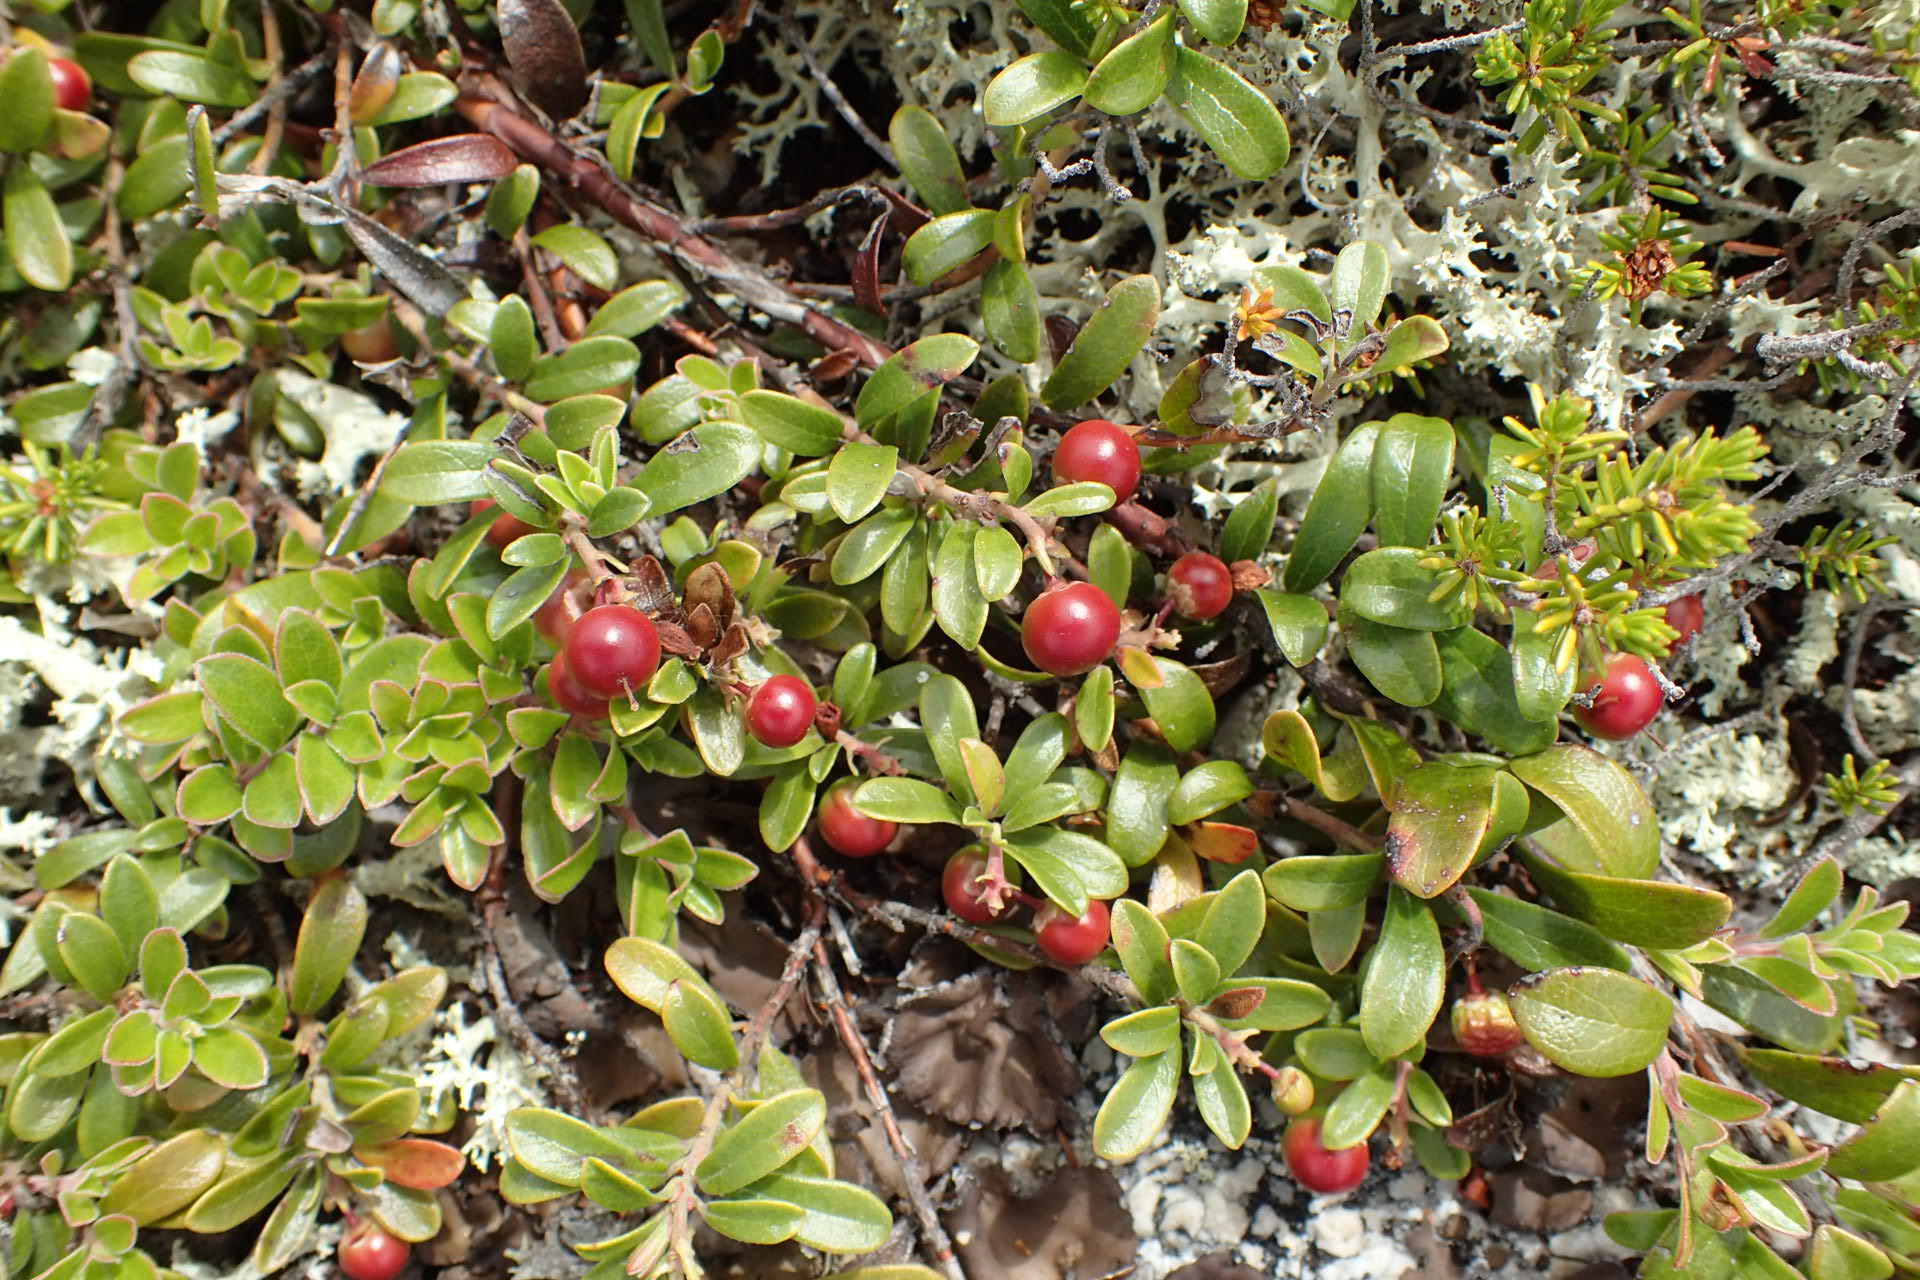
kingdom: Plantae
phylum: Tracheophyta
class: Magnoliopsida
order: Ericales
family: Ericaceae
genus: Arctostaphylos
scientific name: Arctostaphylos uva-ursi
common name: Bearberry
